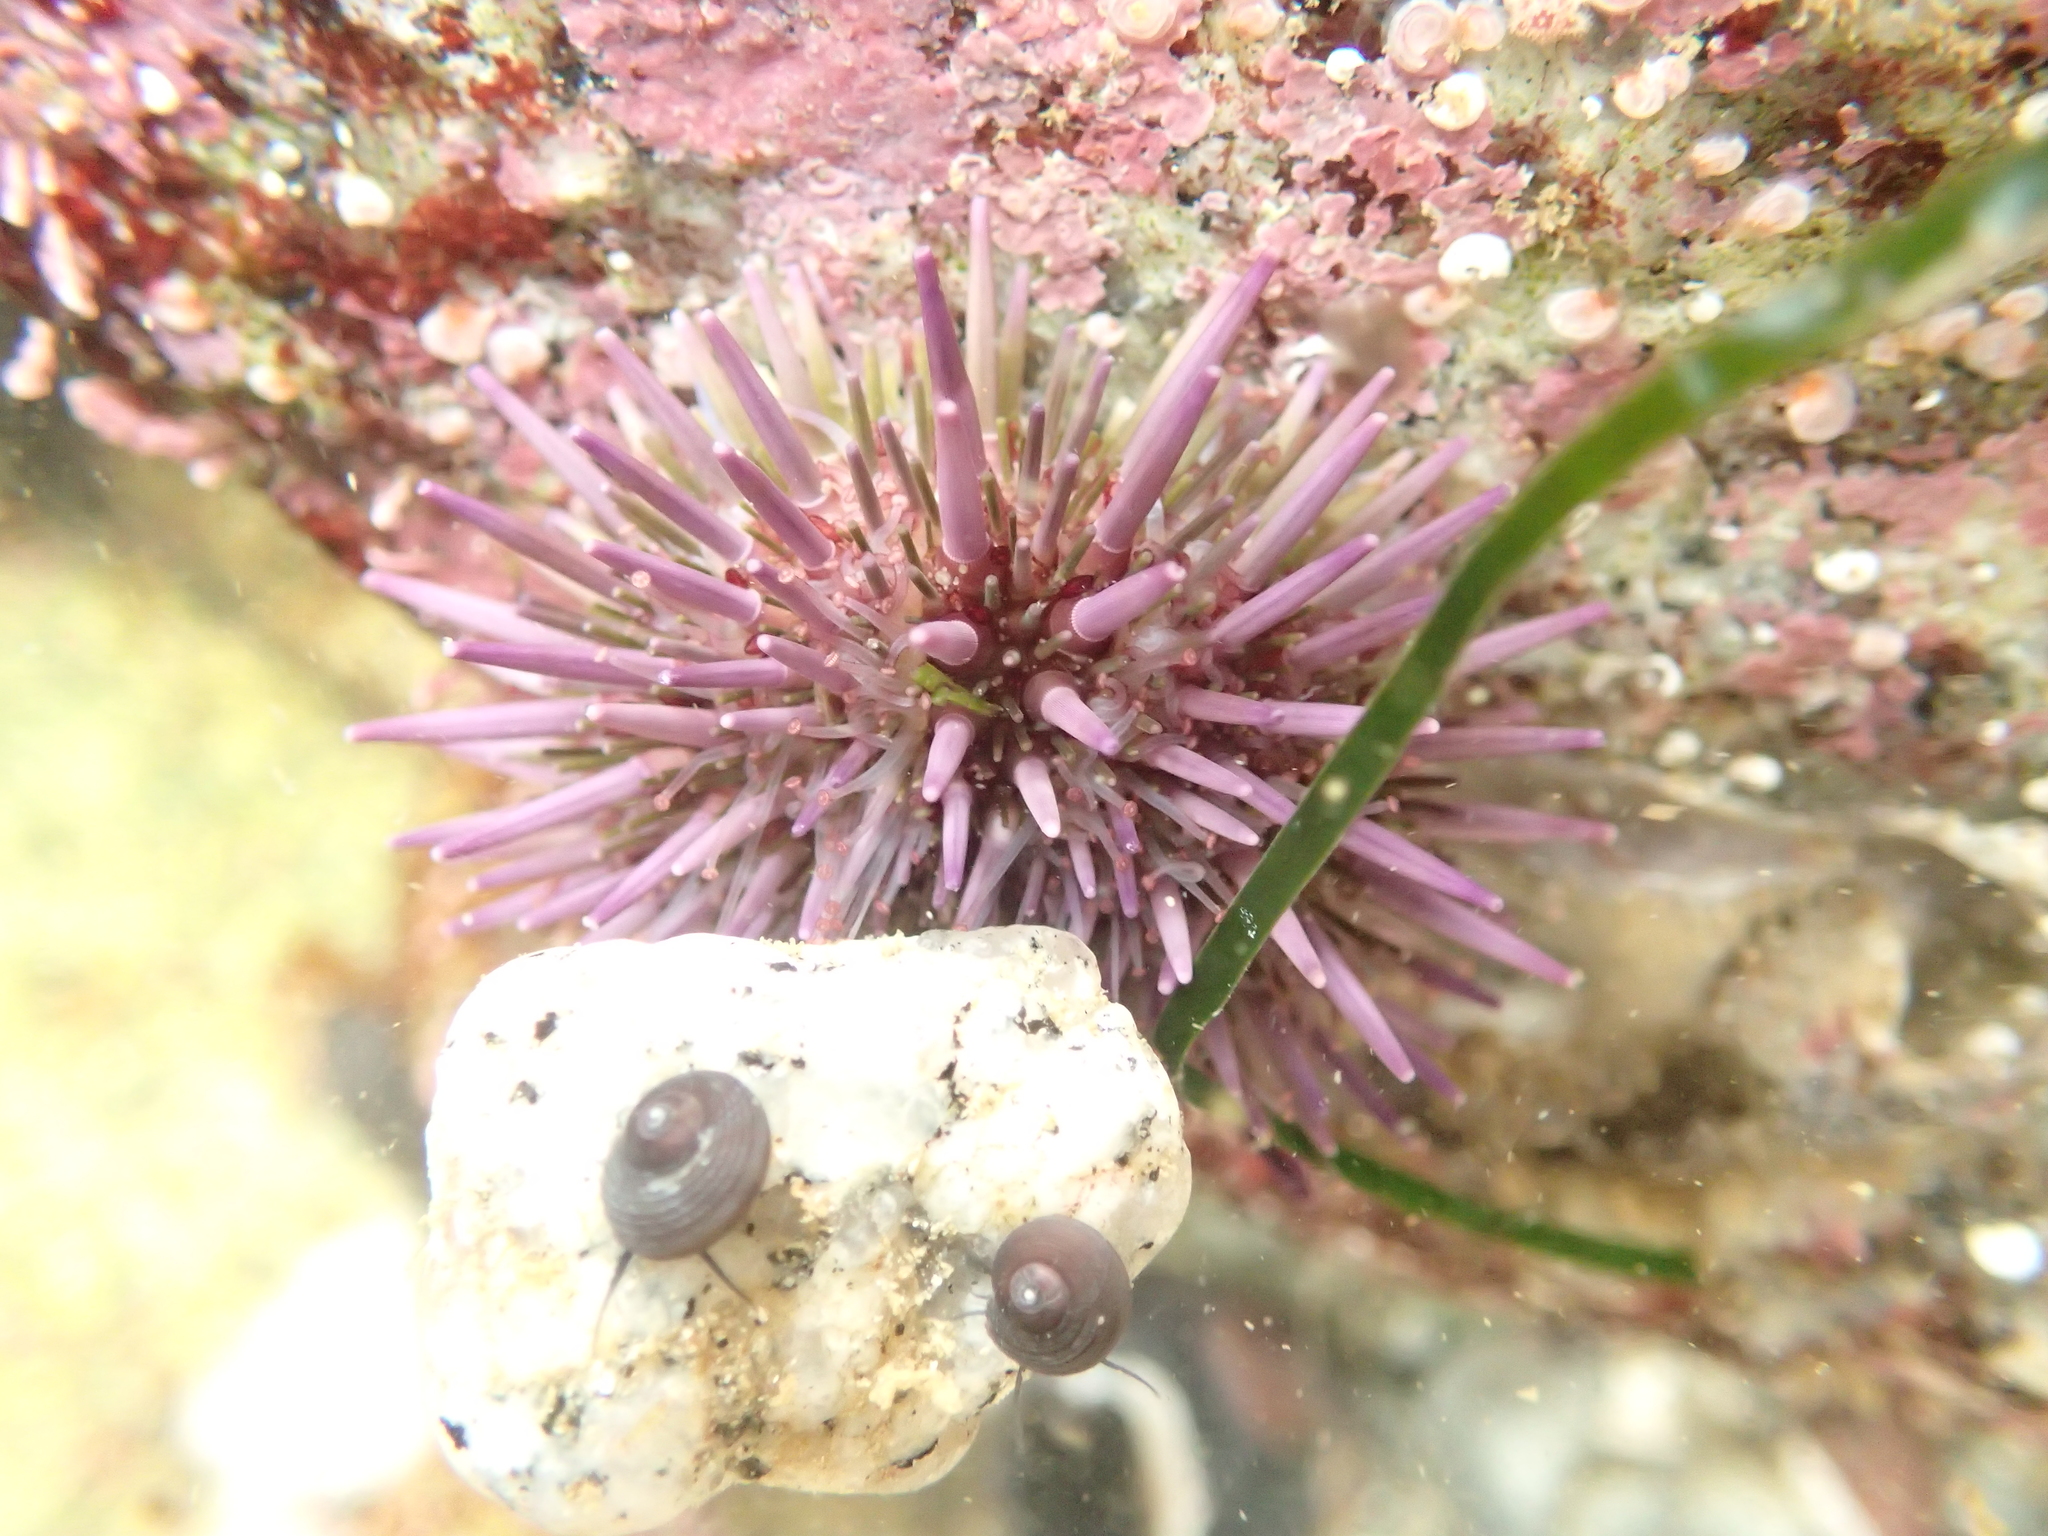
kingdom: Animalia
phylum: Echinodermata
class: Echinoidea
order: Camarodonta
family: Strongylocentrotidae
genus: Strongylocentrotus
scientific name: Strongylocentrotus purpuratus
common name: Purple sea urchin
